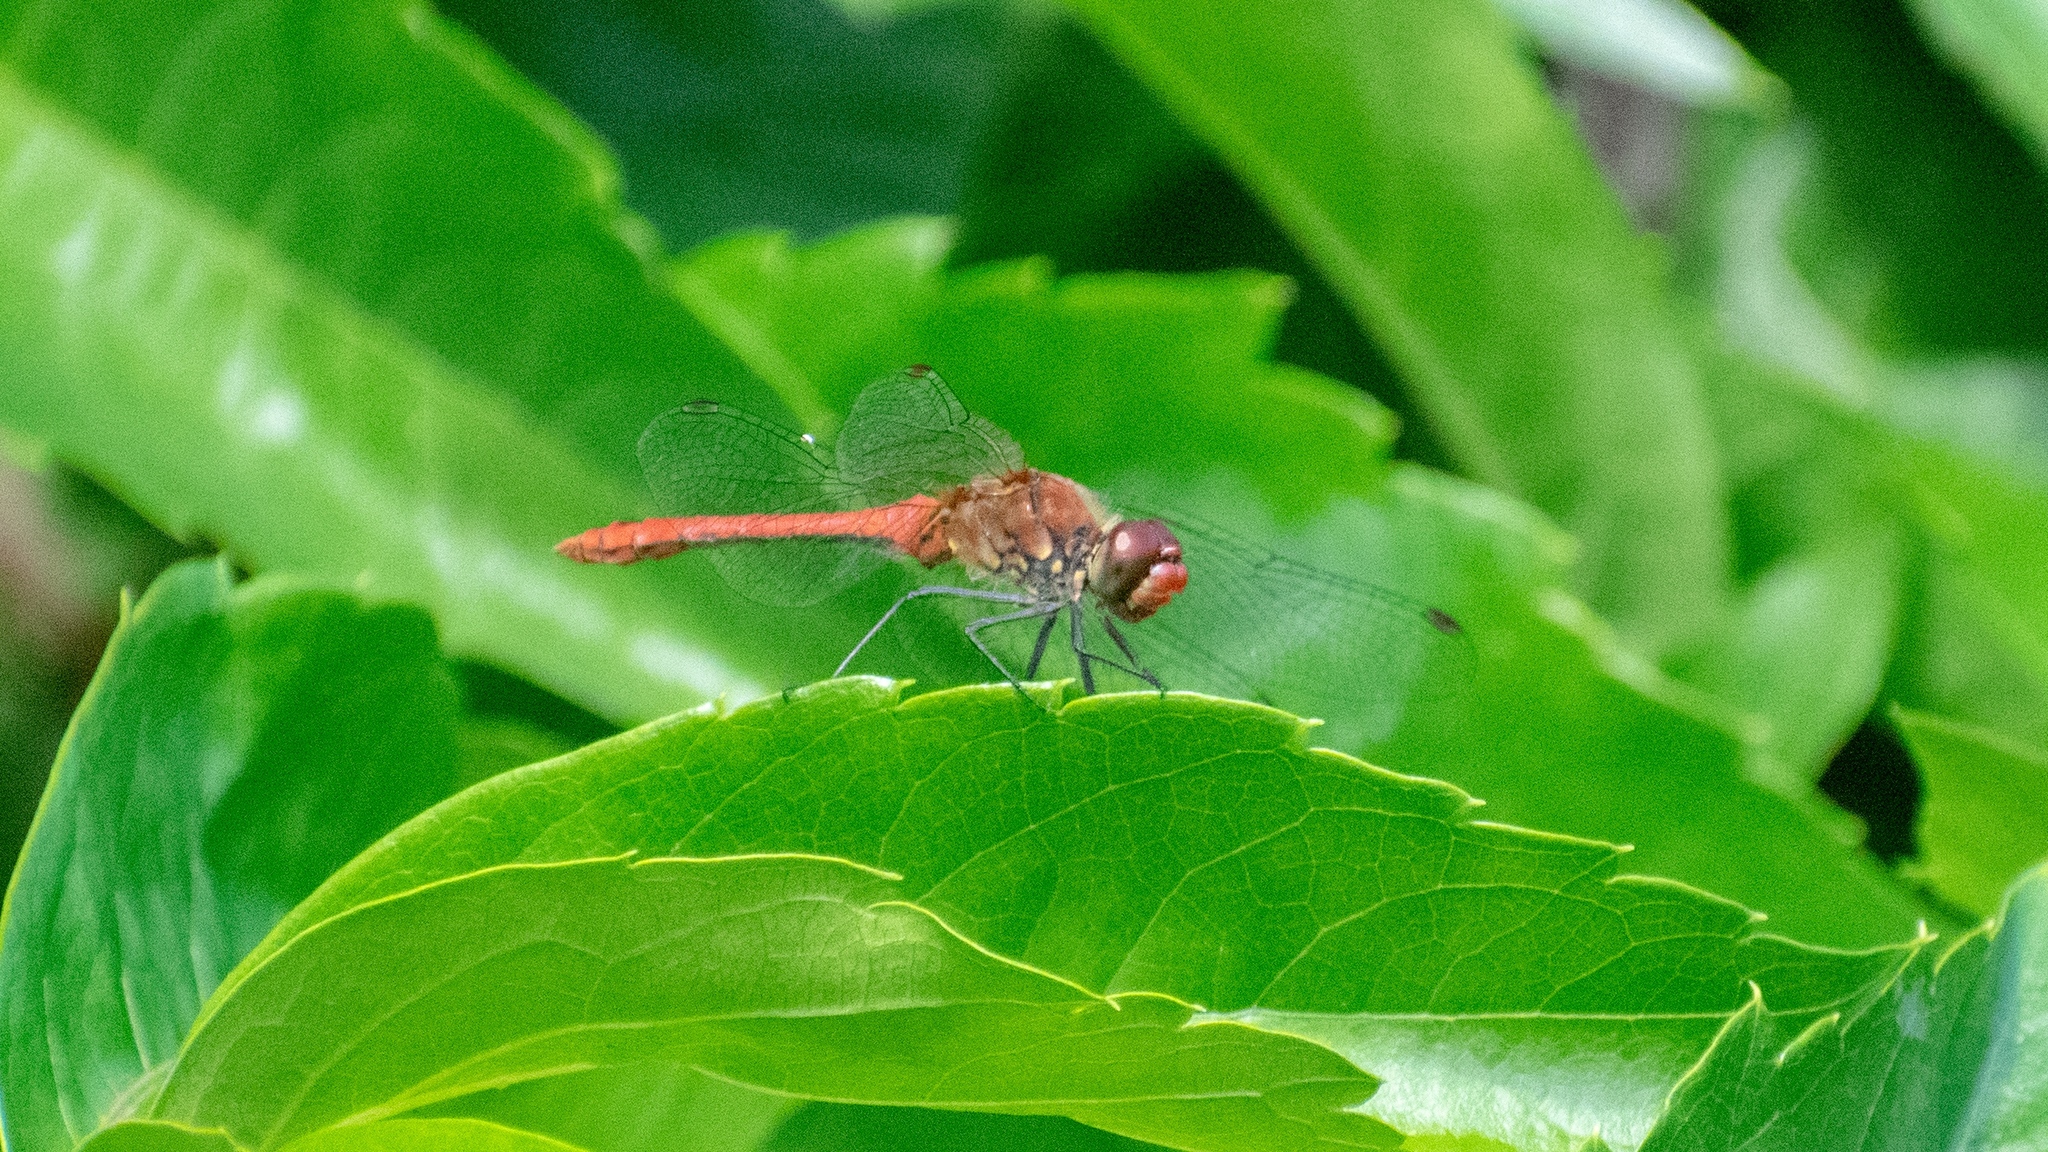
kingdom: Animalia
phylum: Arthropoda
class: Insecta
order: Odonata
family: Libellulidae
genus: Sympetrum
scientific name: Sympetrum sanguineum
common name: Ruddy darter
